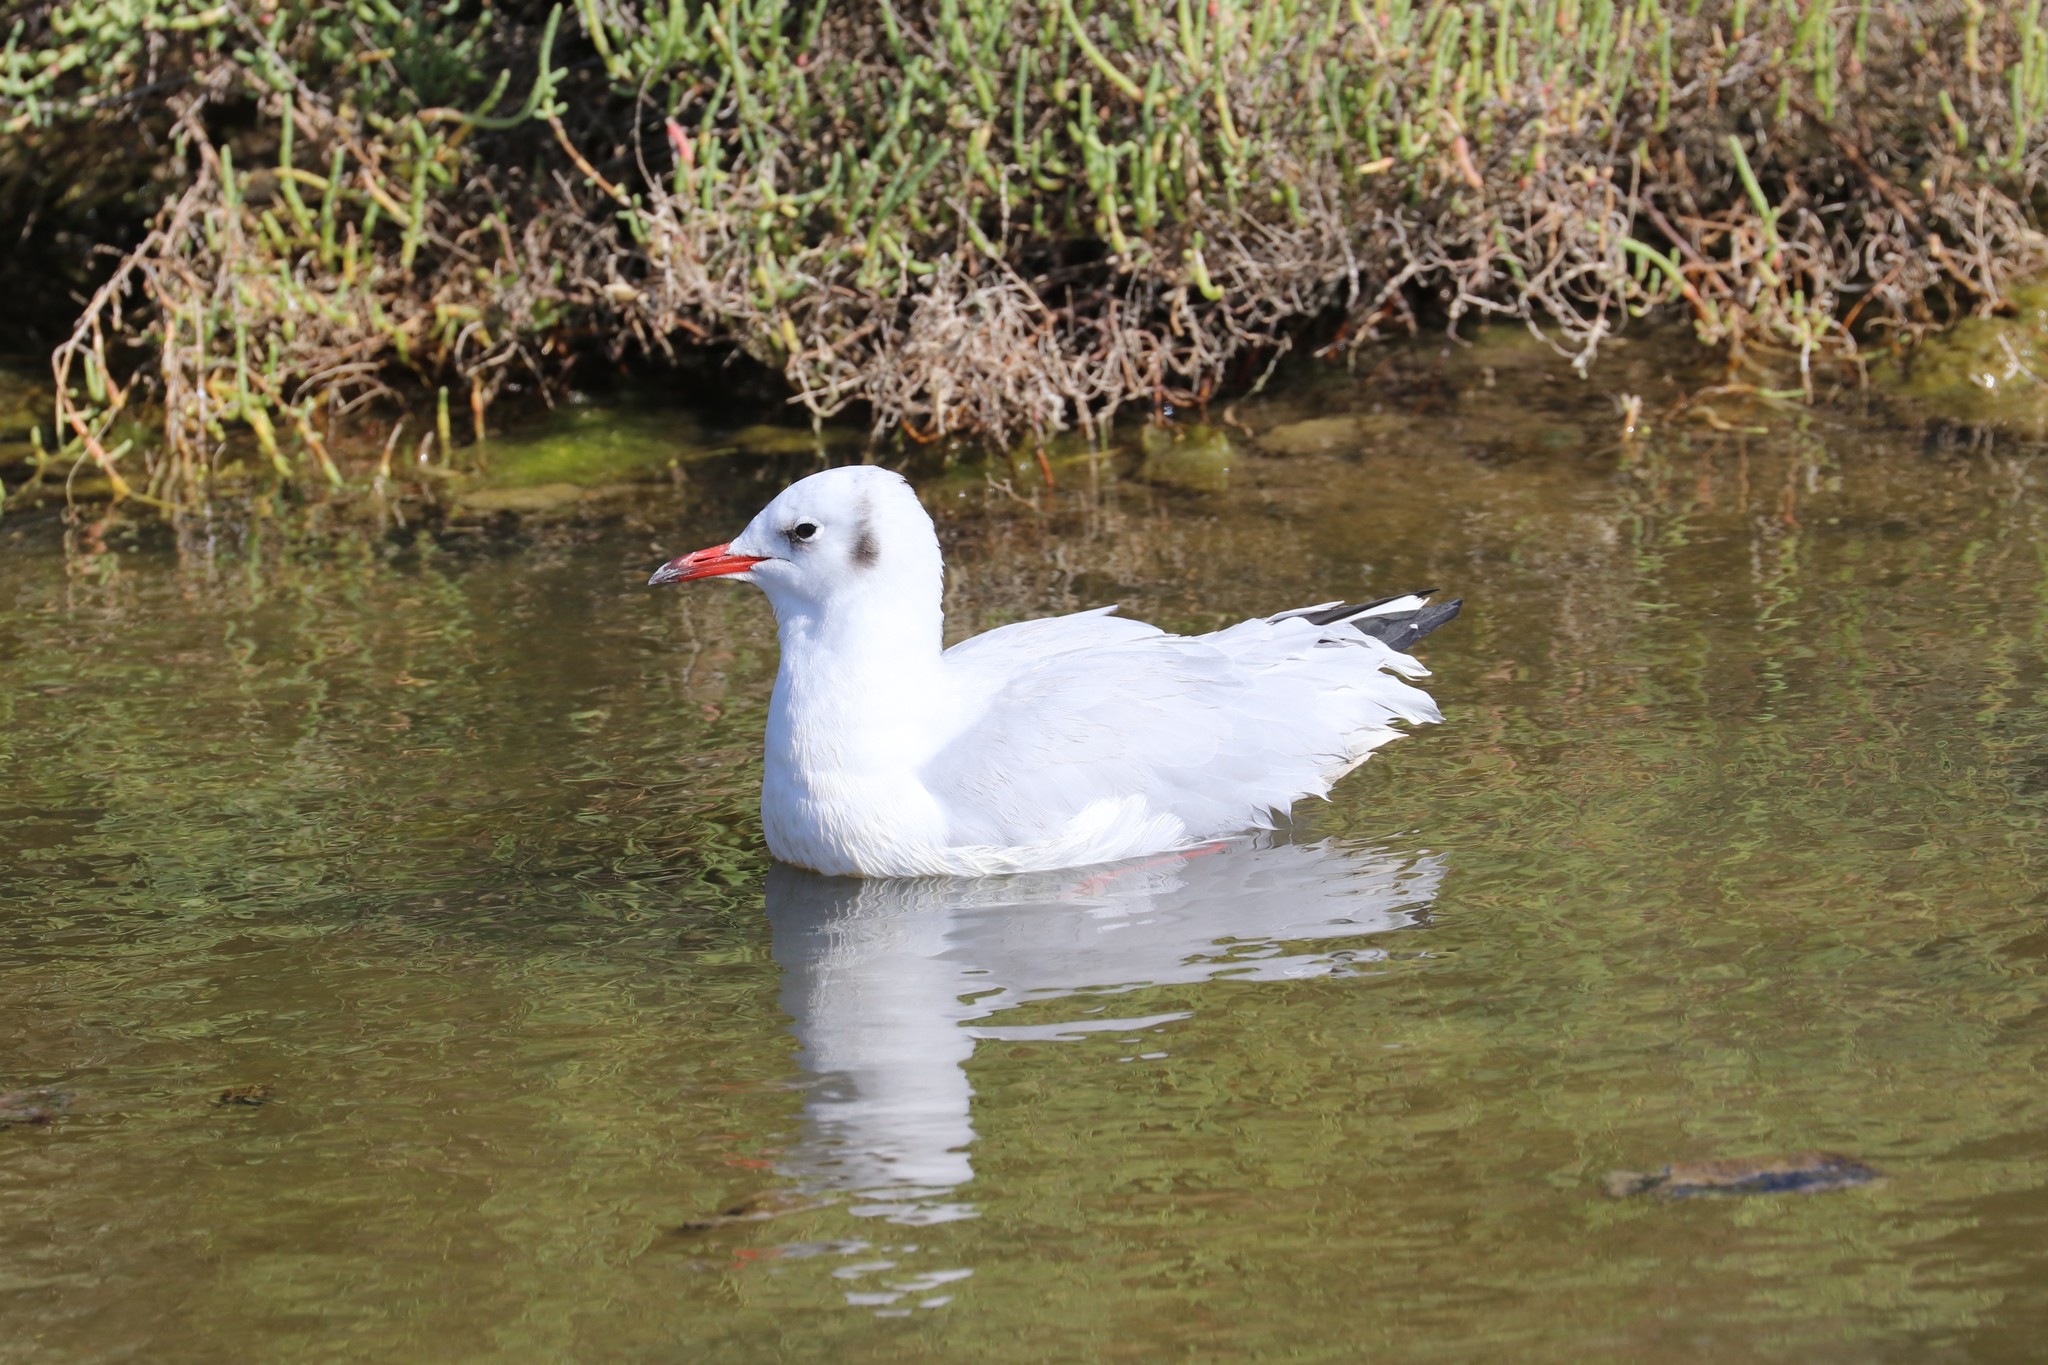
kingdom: Animalia
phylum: Chordata
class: Aves
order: Charadriiformes
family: Laridae
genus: Chroicocephalus
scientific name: Chroicocephalus ridibundus
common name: Black-headed gull
